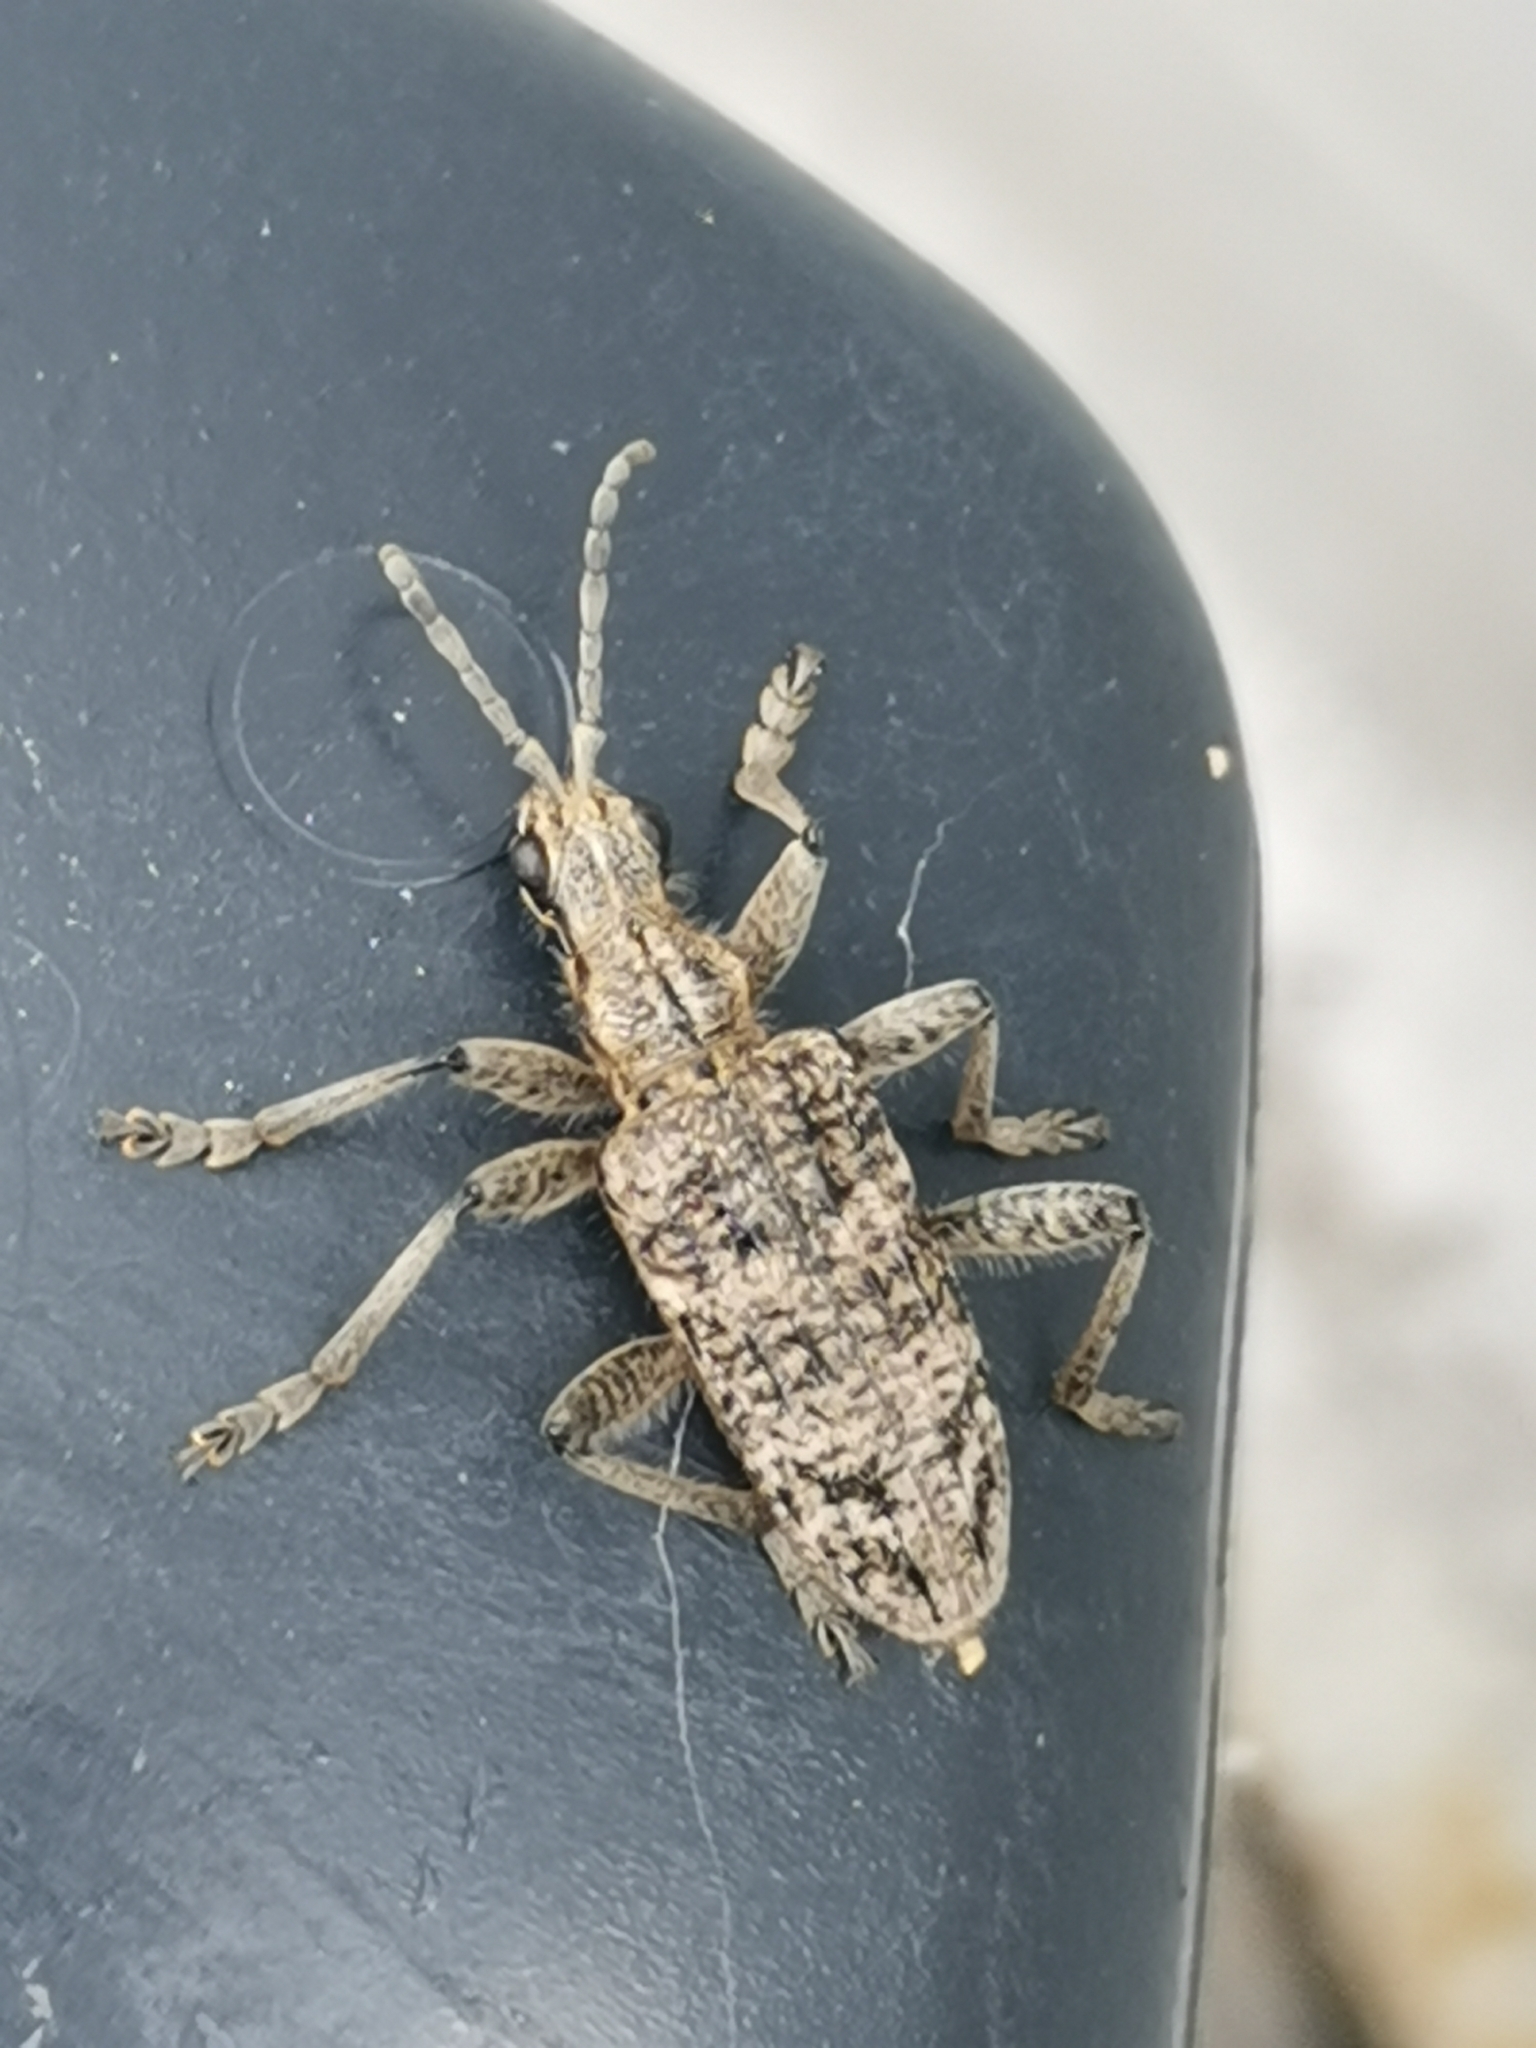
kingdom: Animalia
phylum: Arthropoda
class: Insecta
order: Coleoptera
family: Cerambycidae
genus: Rhagium
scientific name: Rhagium inquisitor
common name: Ribbed pine borer
